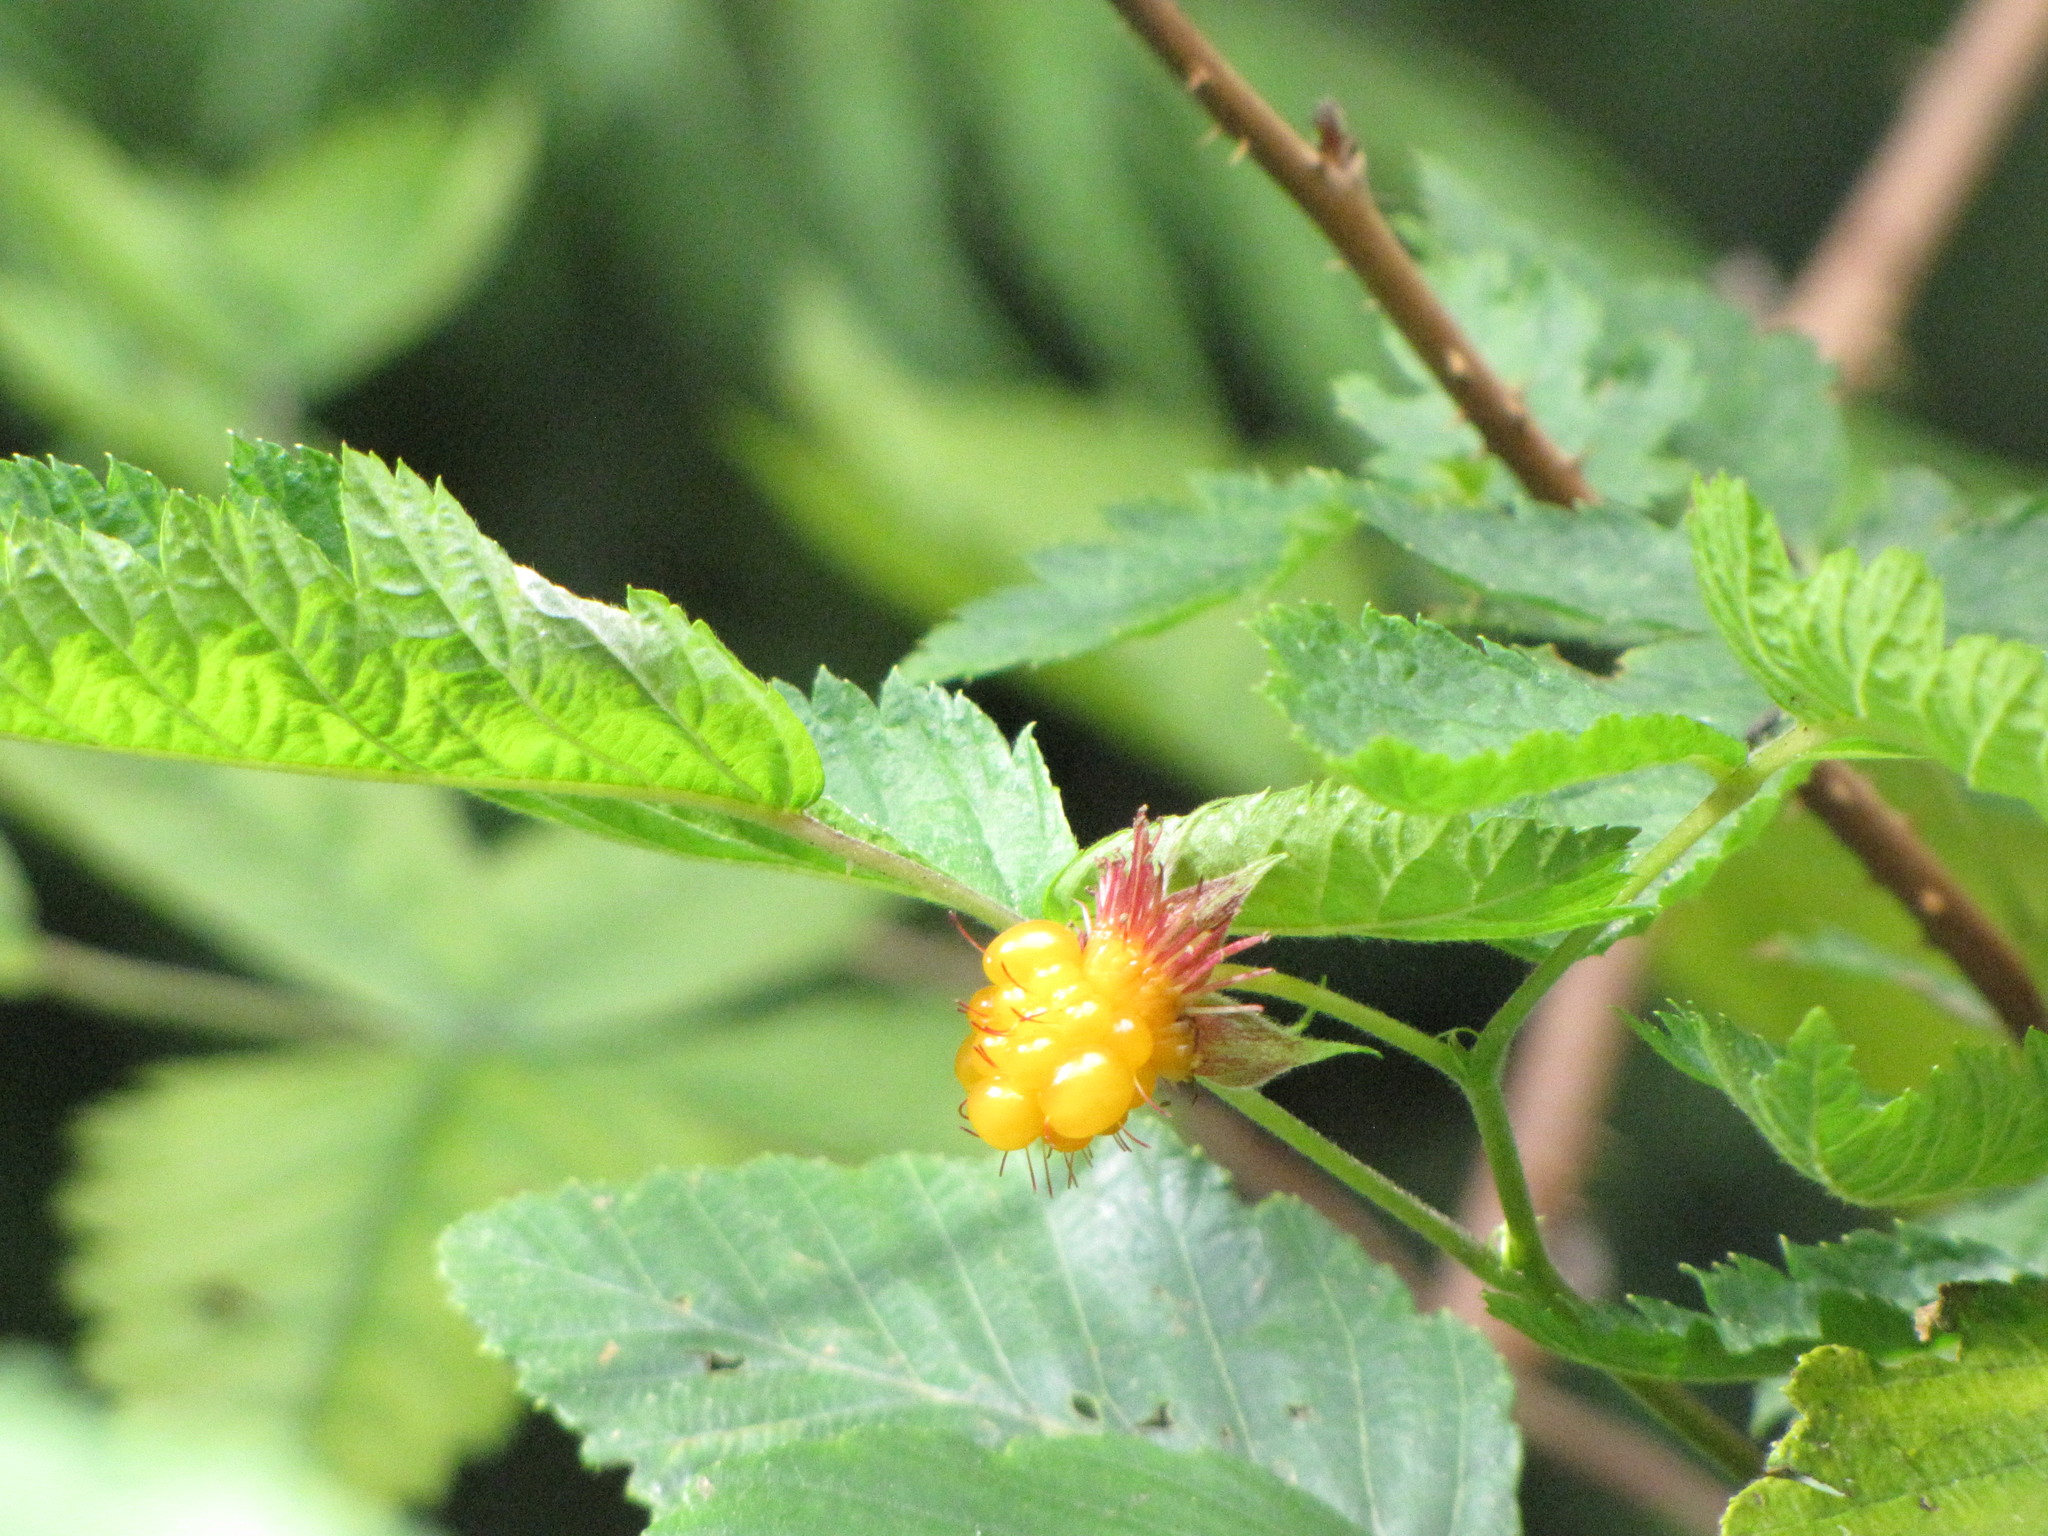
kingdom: Plantae
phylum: Tracheophyta
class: Magnoliopsida
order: Rosales
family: Rosaceae
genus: Rubus
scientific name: Rubus spectabilis
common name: Salmonberry
